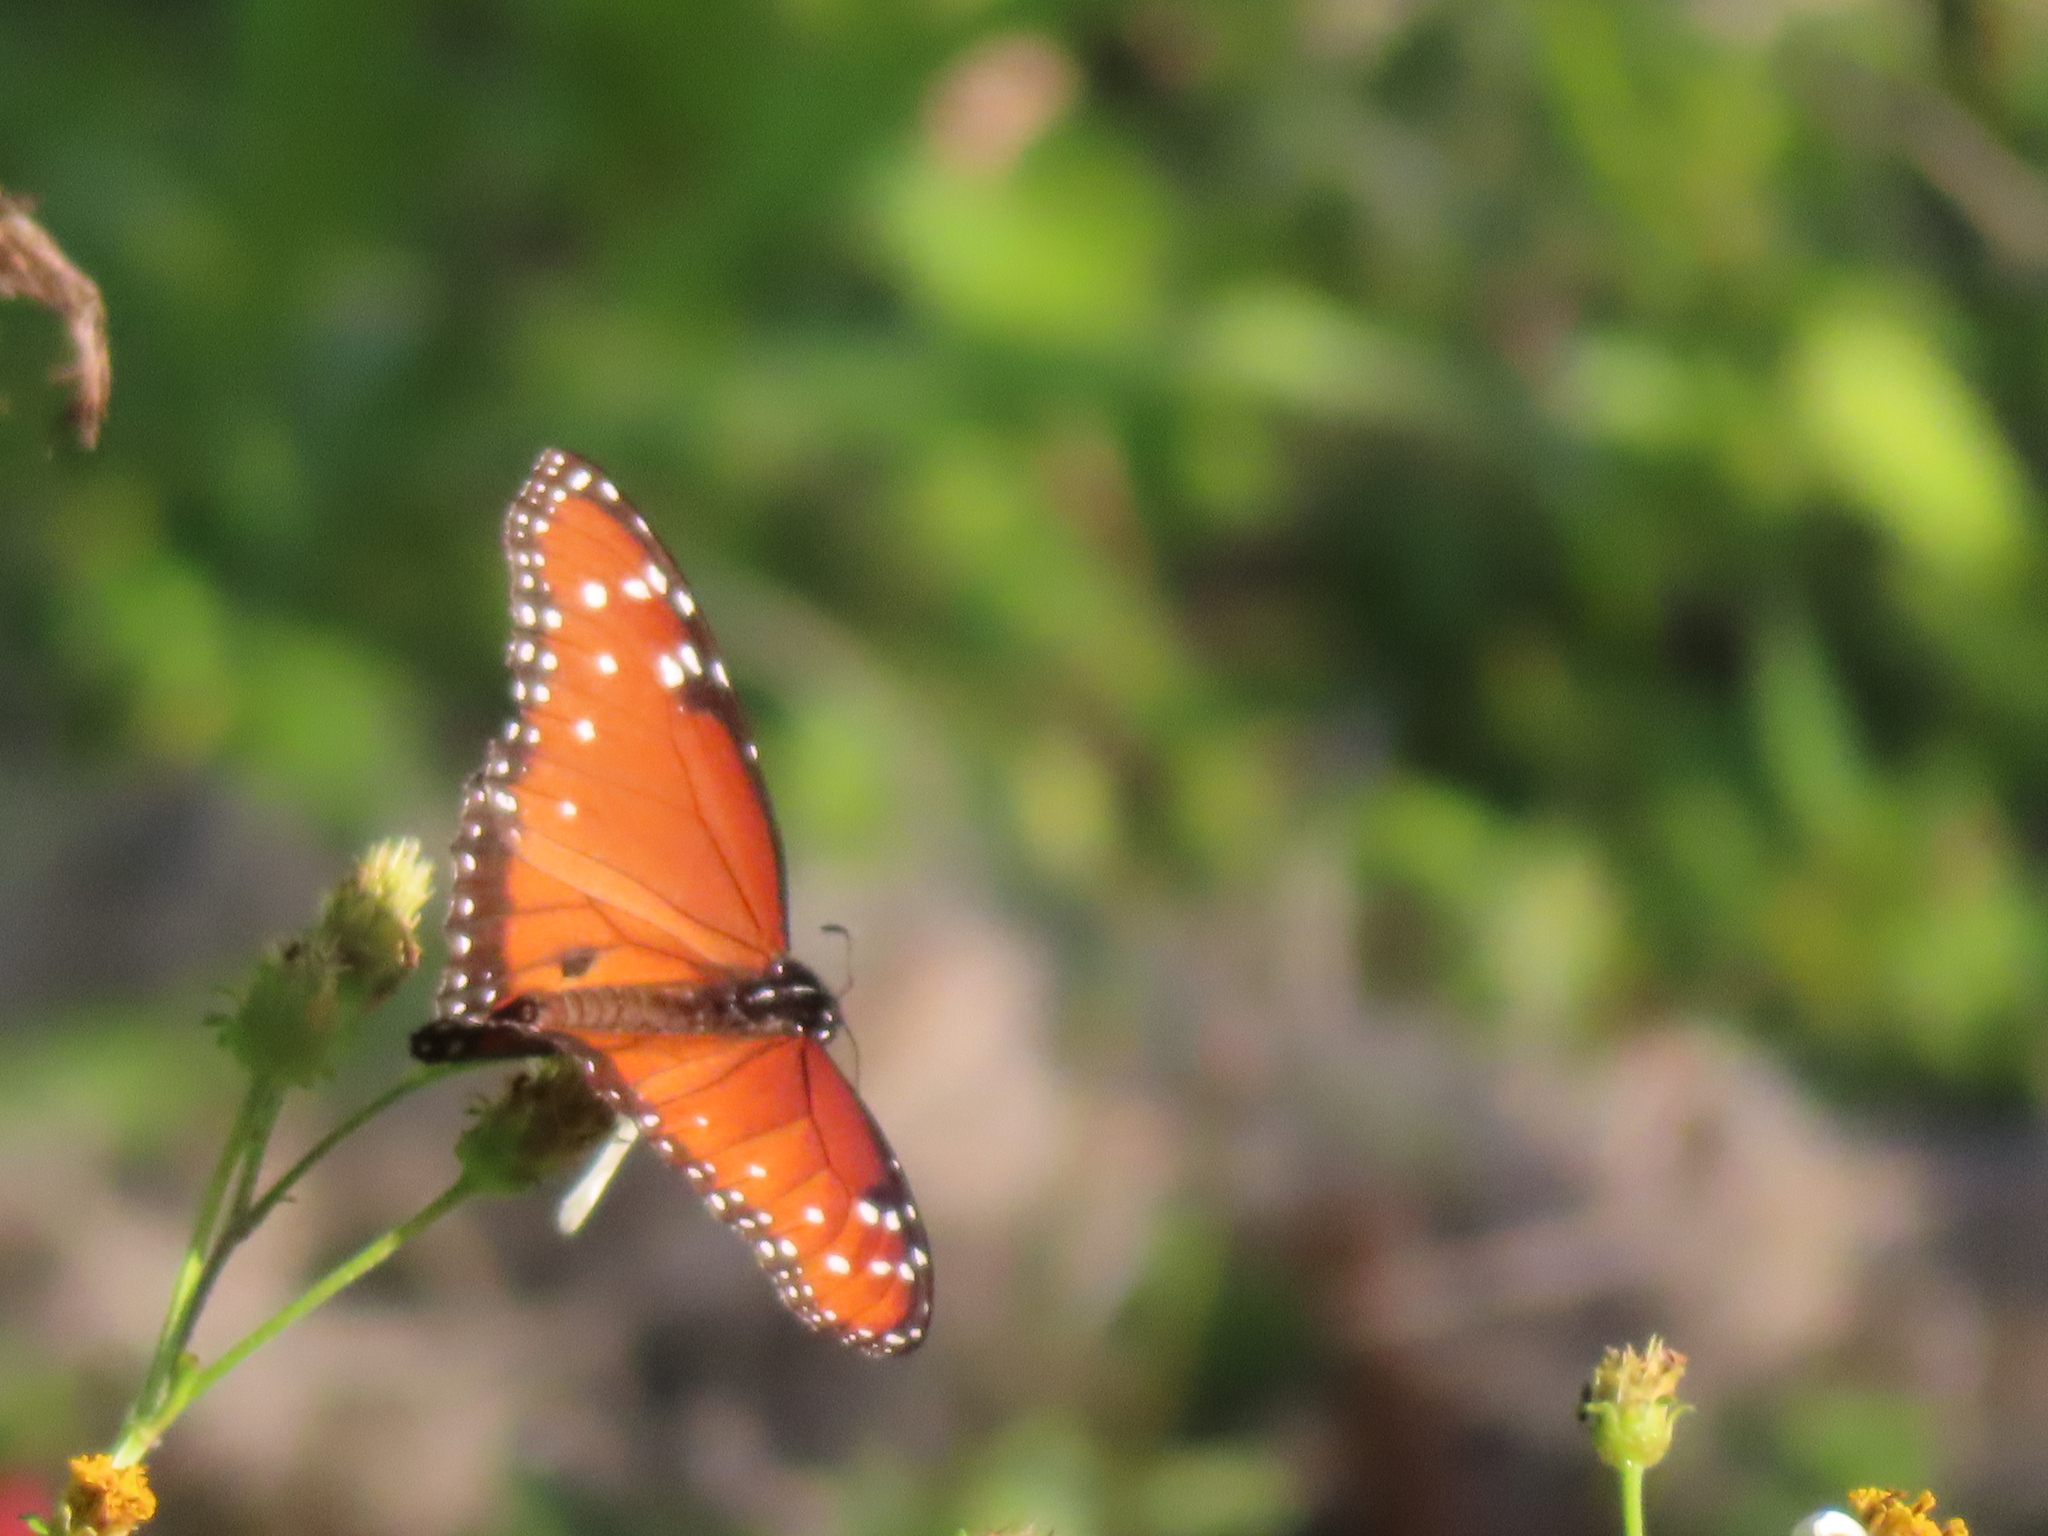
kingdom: Animalia
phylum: Arthropoda
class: Insecta
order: Lepidoptera
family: Nymphalidae
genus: Danaus
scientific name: Danaus gilippus
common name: Queen
